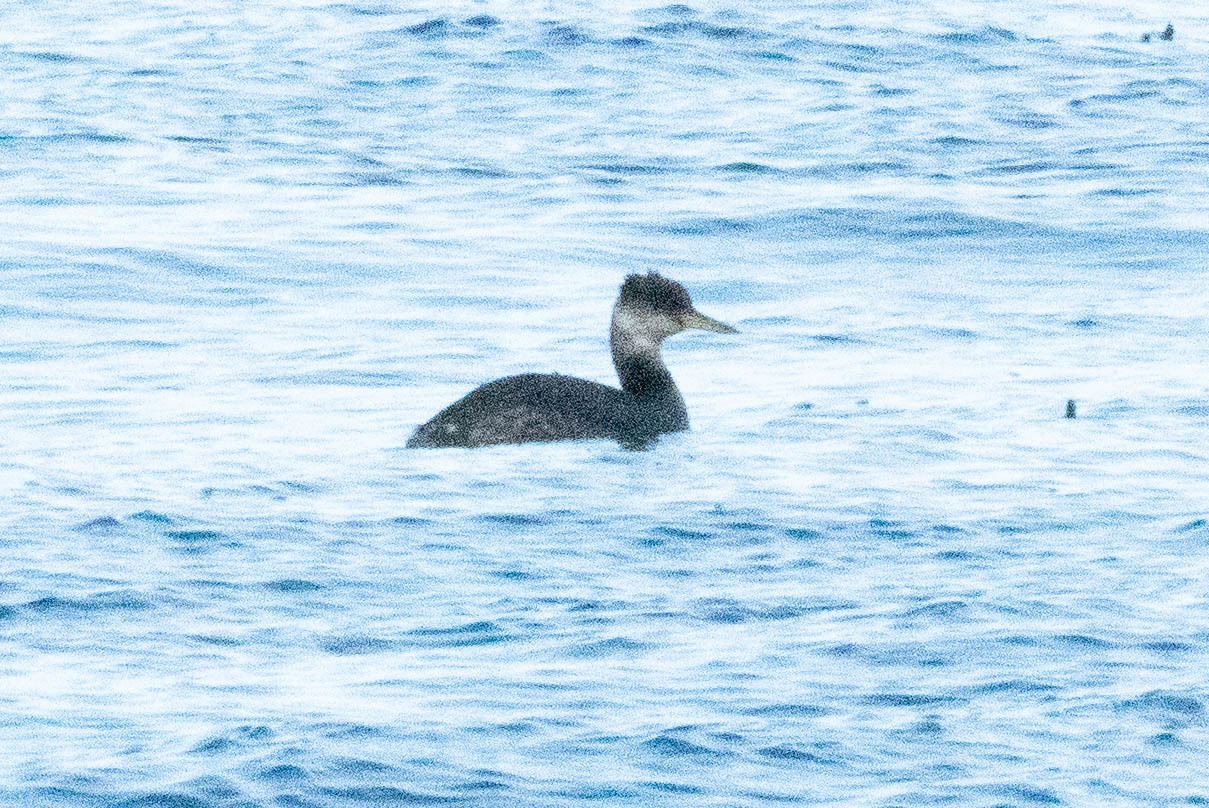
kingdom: Animalia
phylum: Chordata
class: Aves
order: Podicipediformes
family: Podicipedidae
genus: Podiceps
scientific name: Podiceps grisegena
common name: Red-necked grebe
